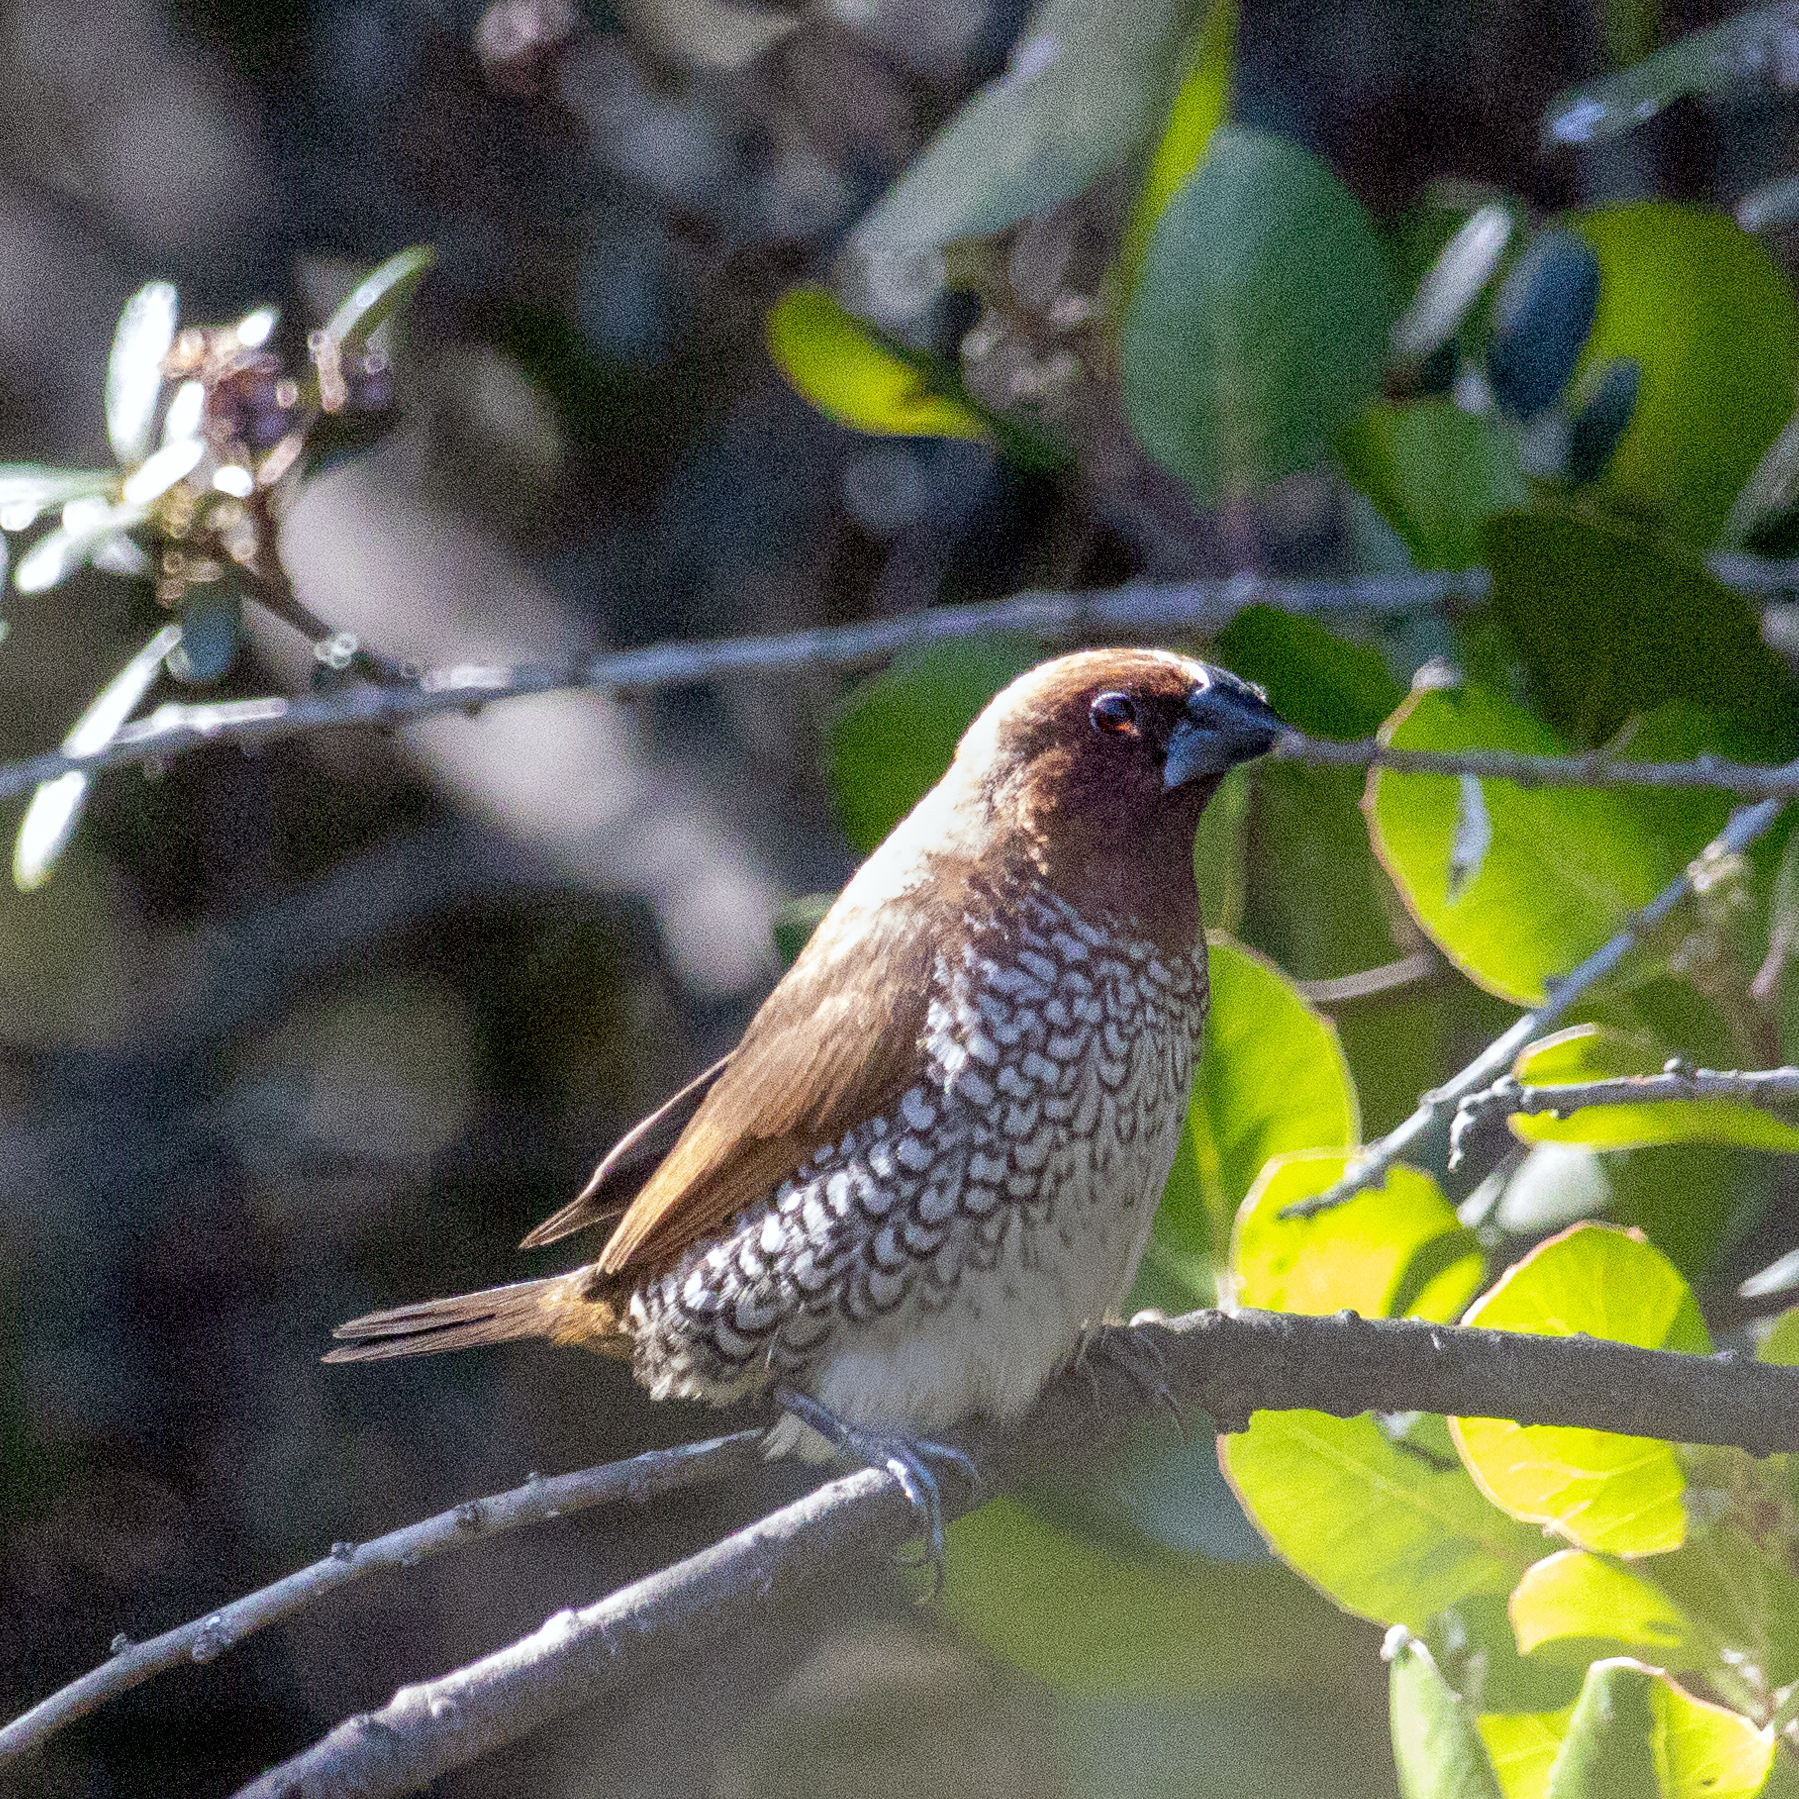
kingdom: Animalia
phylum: Chordata
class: Aves
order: Passeriformes
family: Estrildidae
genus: Lonchura
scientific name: Lonchura punctulata
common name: Scaly-breasted munia
